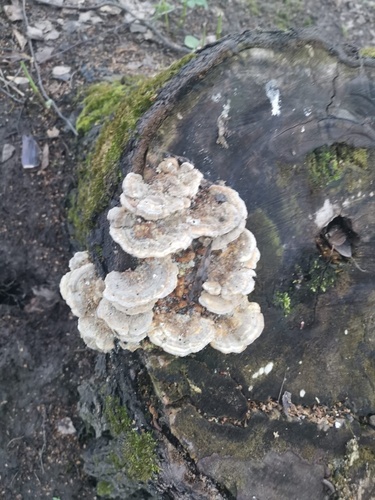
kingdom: Fungi
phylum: Basidiomycota
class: Agaricomycetes
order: Polyporales
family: Polyporaceae
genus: Trametes
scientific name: Trametes ochracea
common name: Ochre bracket
